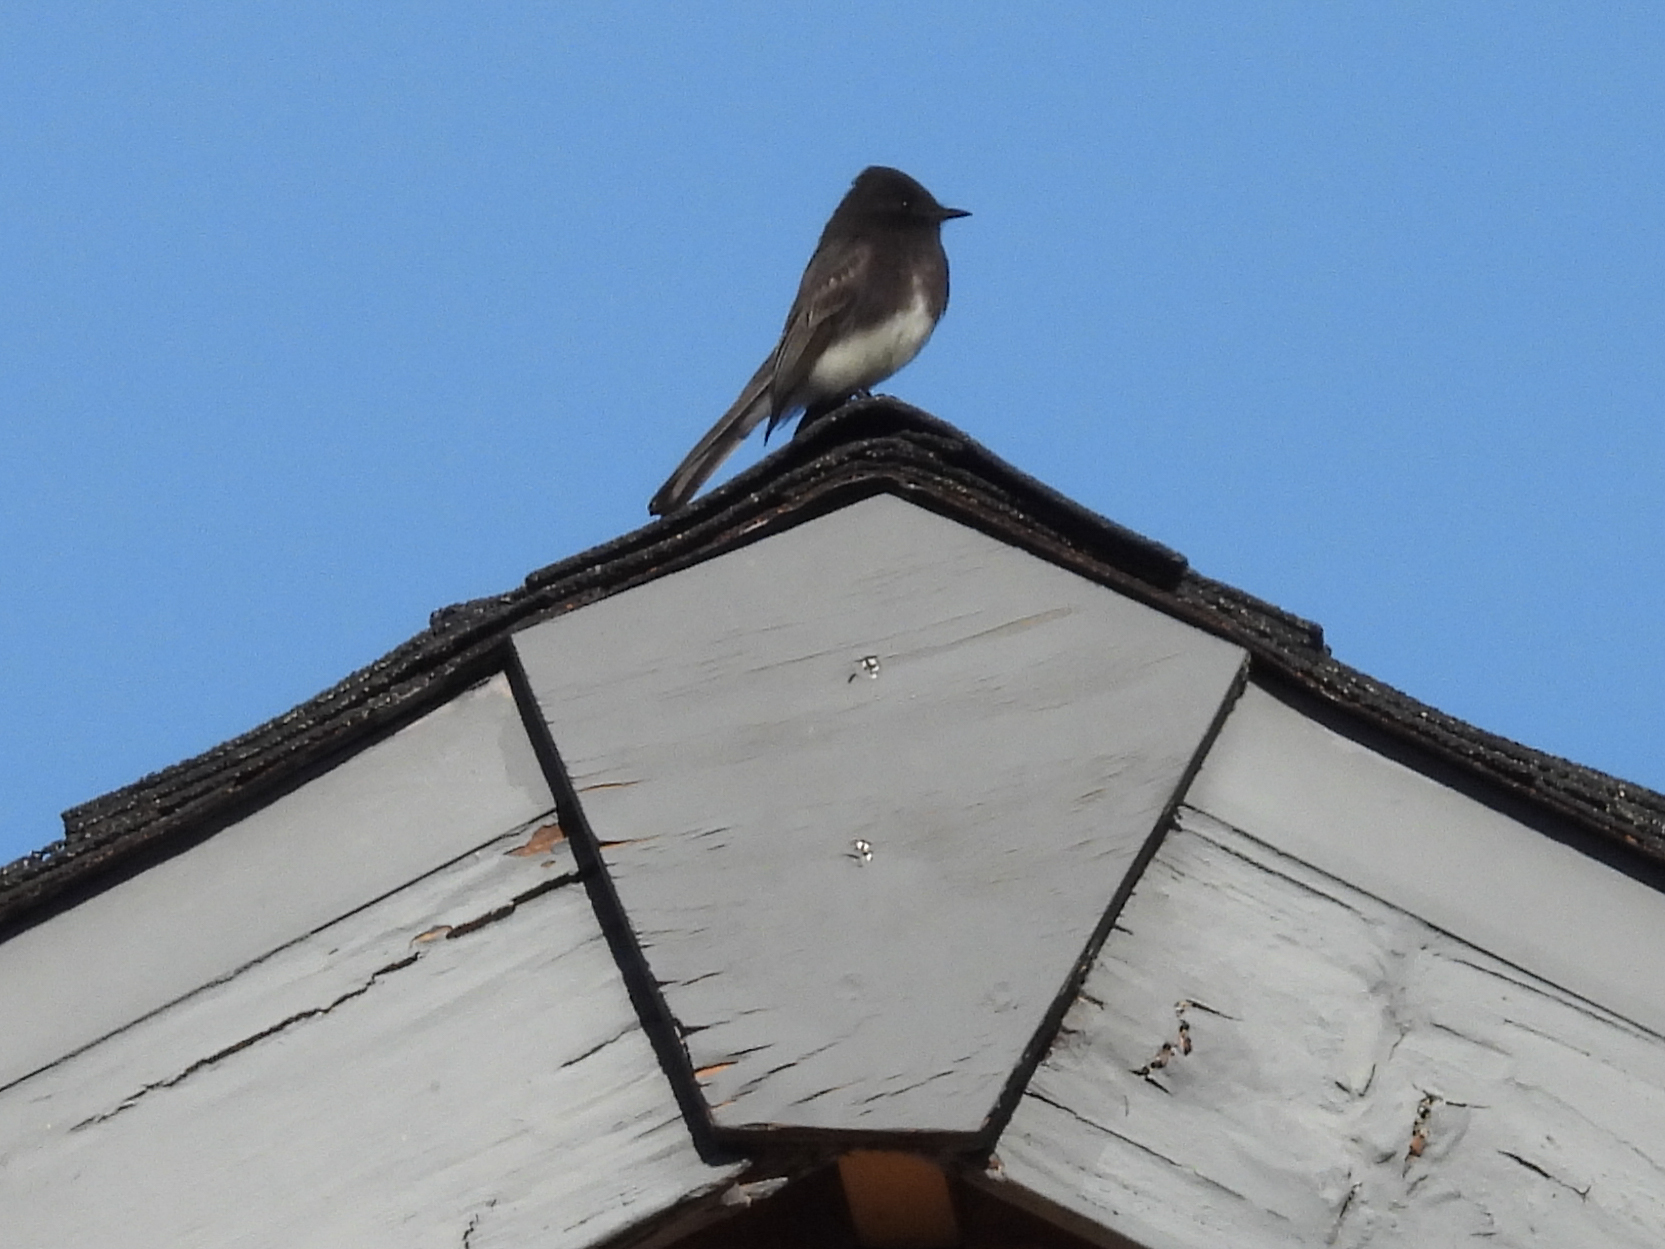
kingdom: Animalia
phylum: Chordata
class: Aves
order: Passeriformes
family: Tyrannidae
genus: Sayornis
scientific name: Sayornis nigricans
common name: Black phoebe
